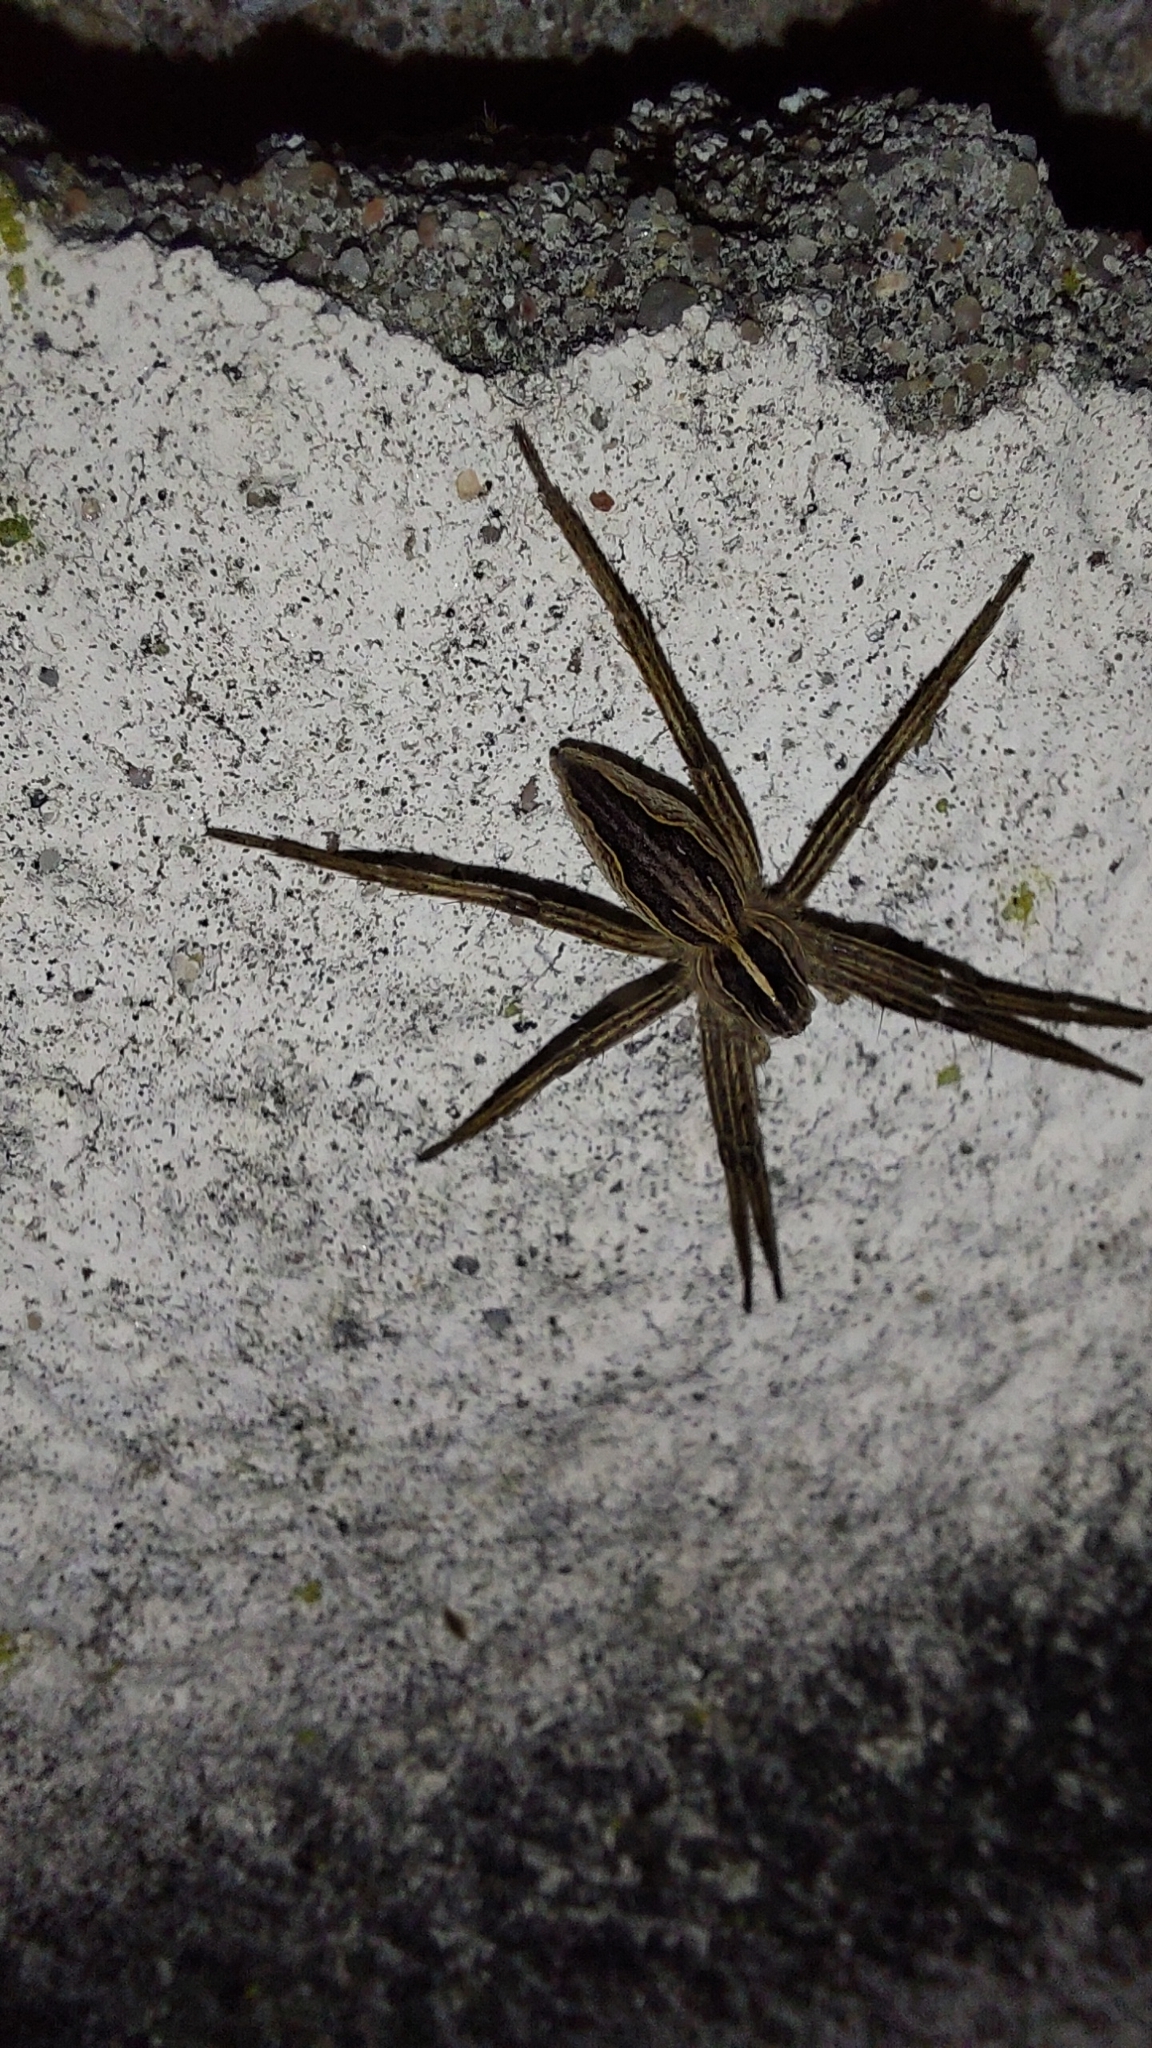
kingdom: Animalia
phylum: Arthropoda
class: Arachnida
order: Araneae
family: Pisauridae
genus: Pisaura
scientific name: Pisaura mirabilis
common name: Tent spider
